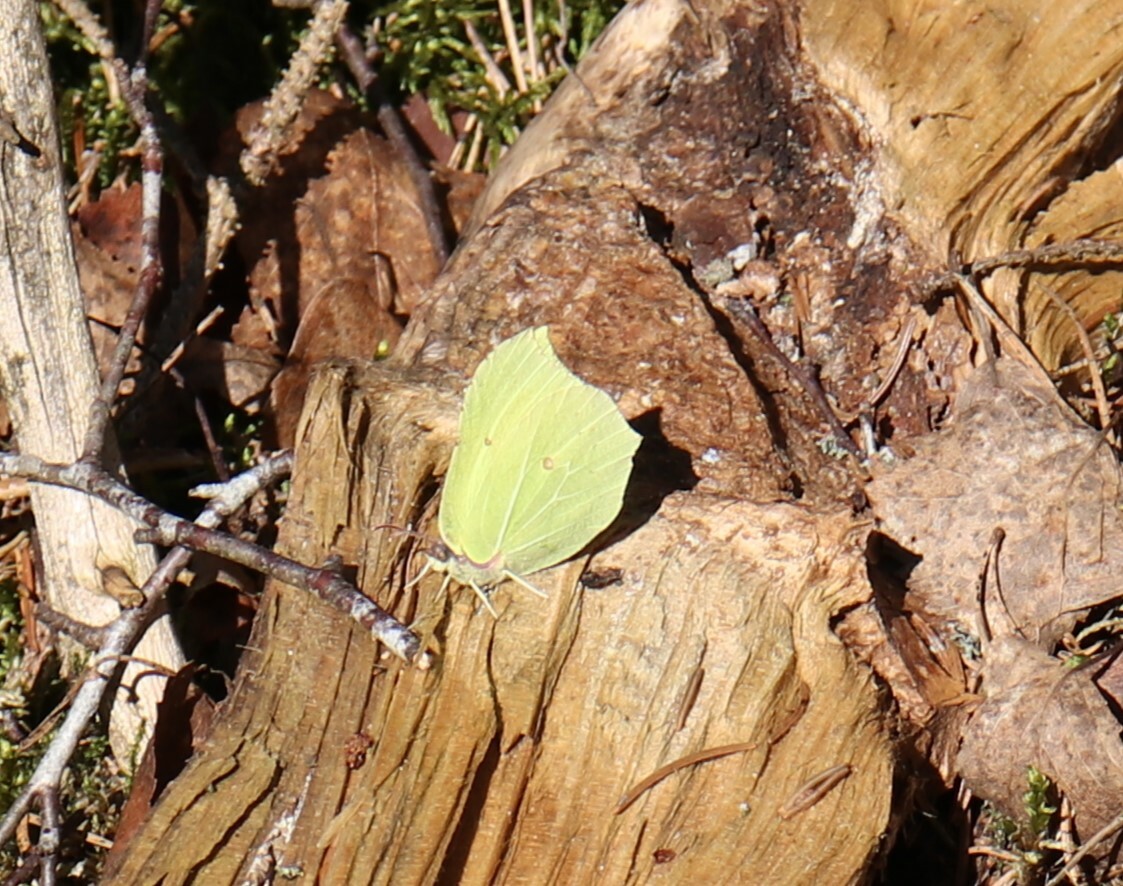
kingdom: Animalia
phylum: Arthropoda
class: Insecta
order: Lepidoptera
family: Pieridae
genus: Gonepteryx
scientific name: Gonepteryx rhamni
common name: Brimstone
